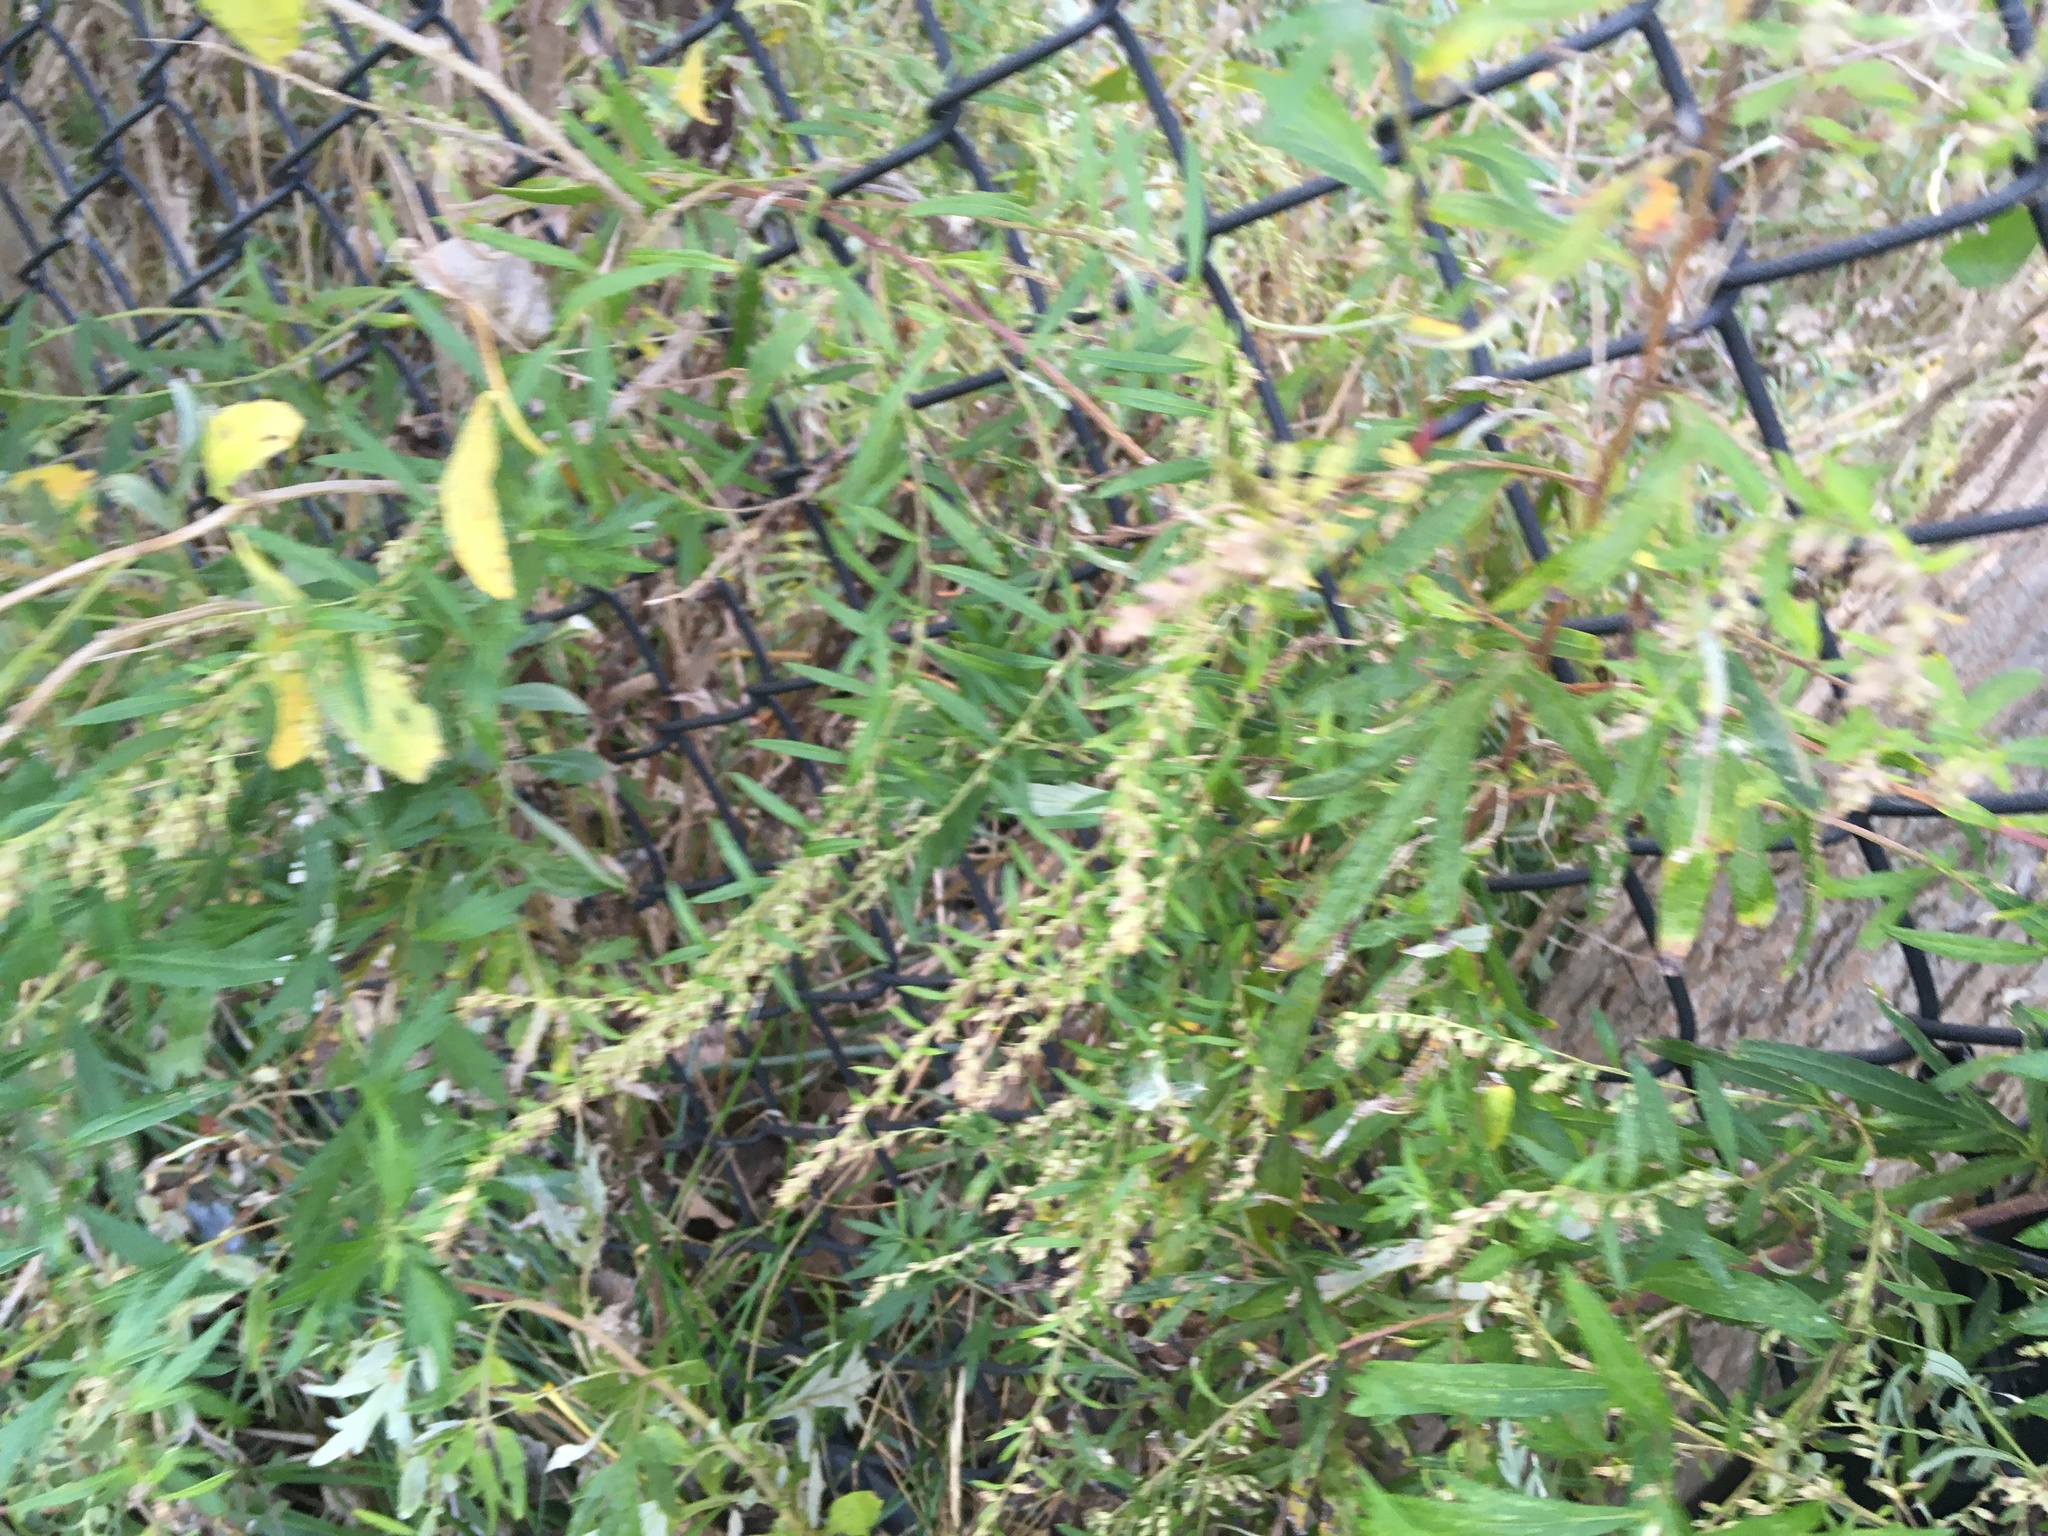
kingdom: Plantae
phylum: Tracheophyta
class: Magnoliopsida
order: Asterales
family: Asteraceae
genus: Artemisia
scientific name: Artemisia vulgaris
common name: Mugwort
